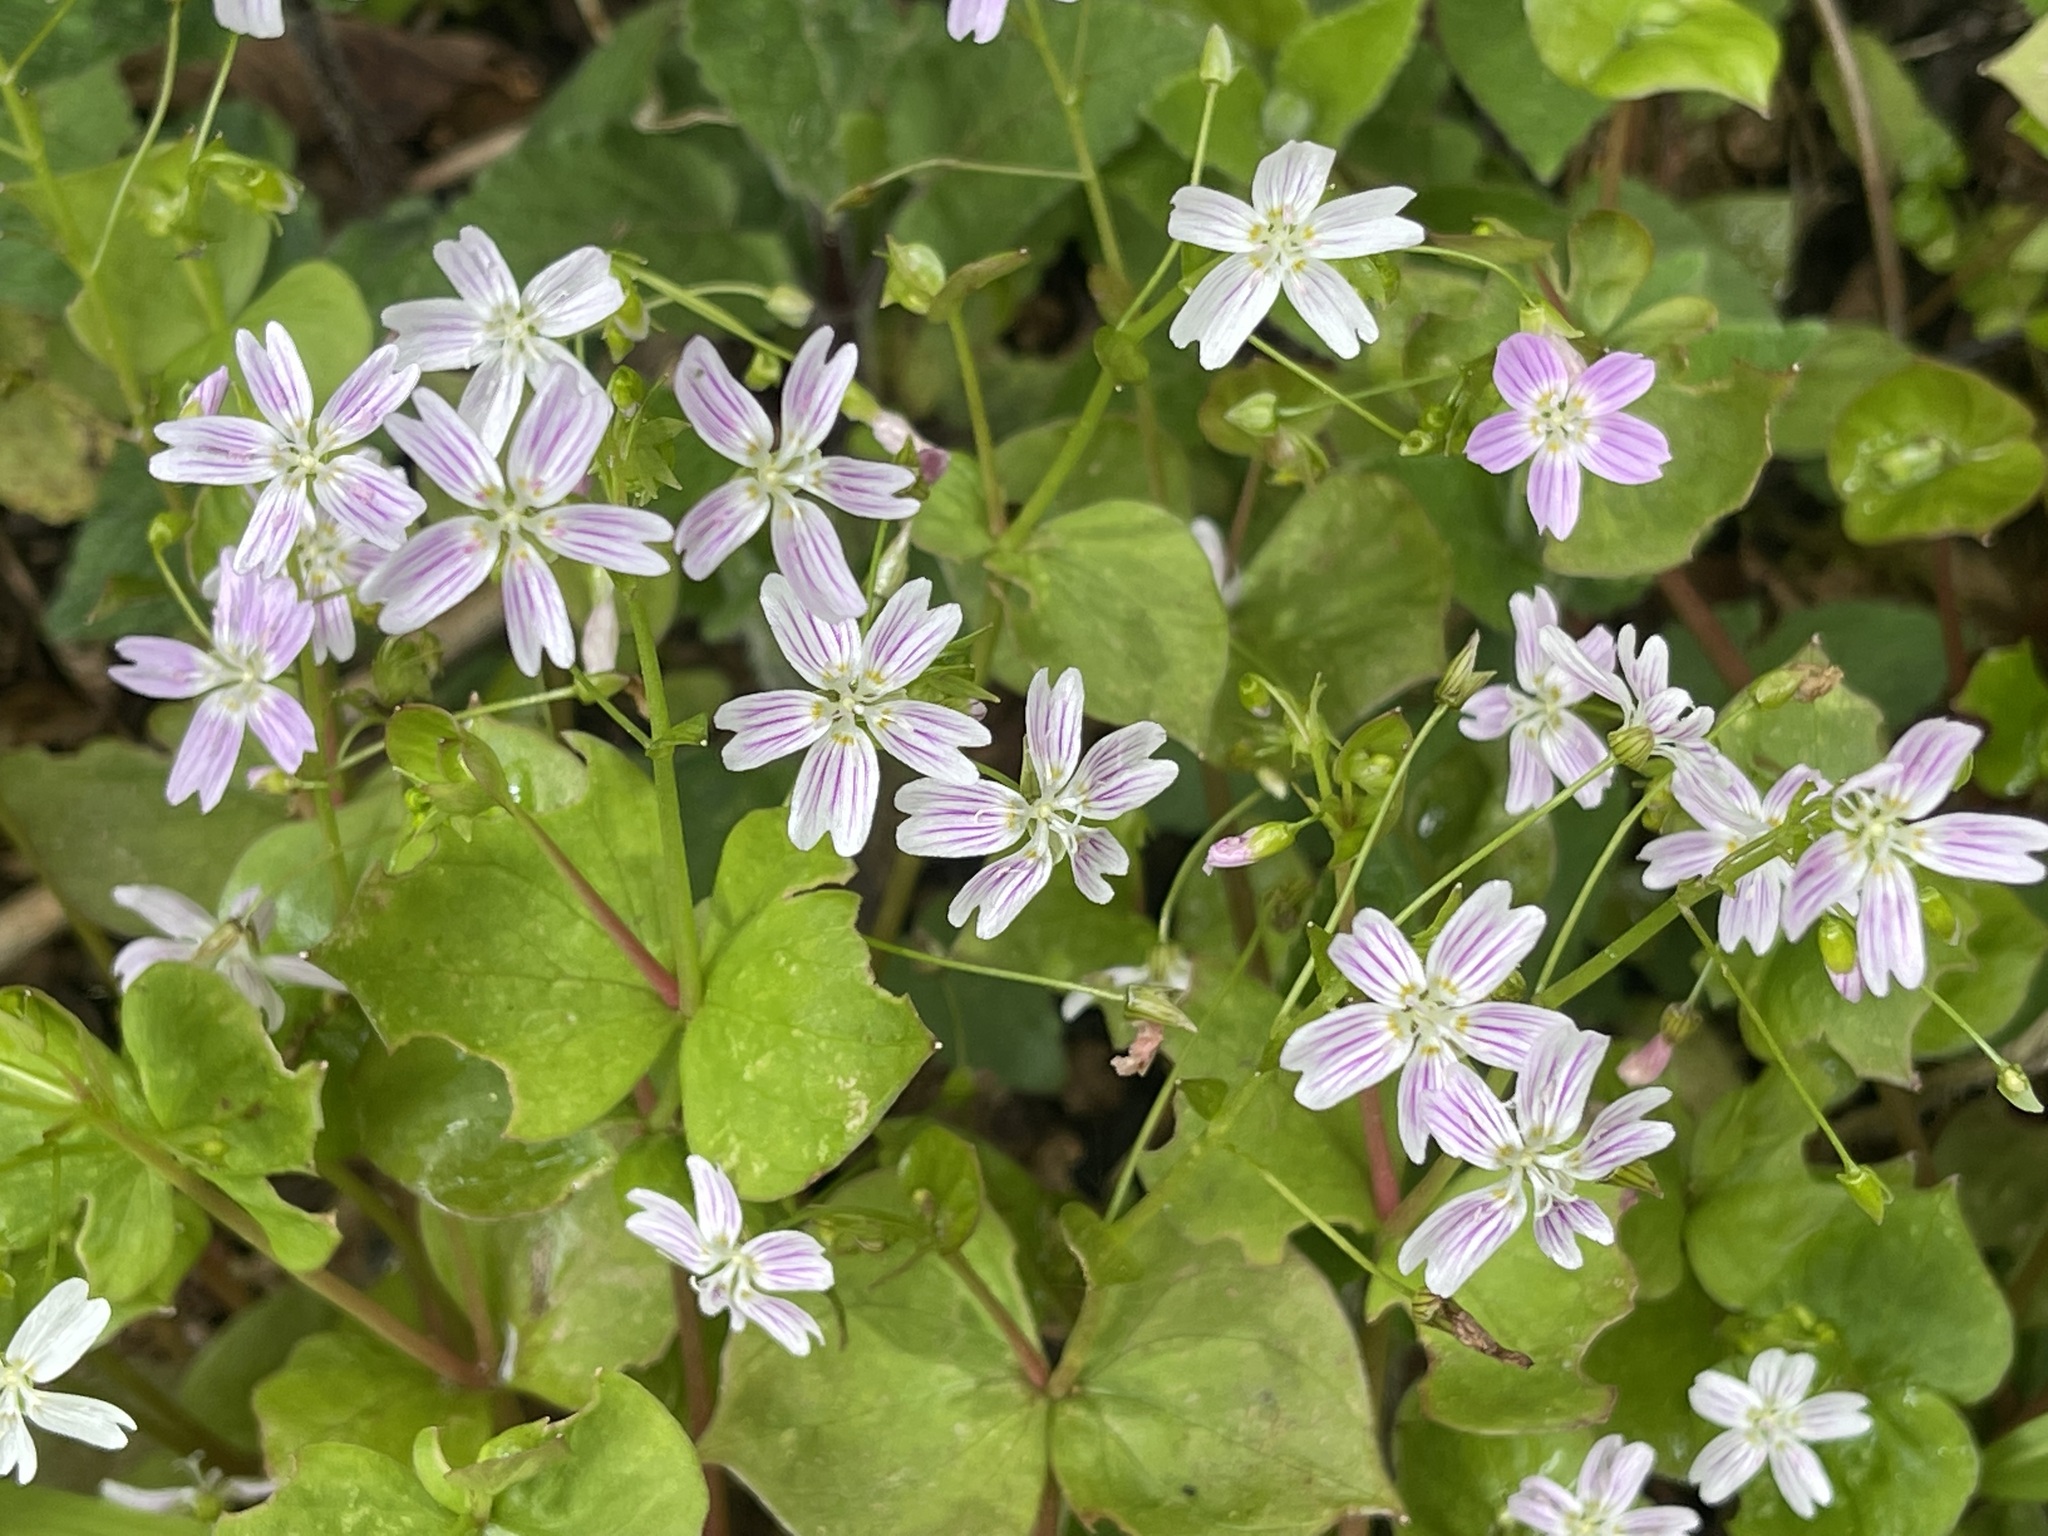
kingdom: Plantae
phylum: Tracheophyta
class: Magnoliopsida
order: Caryophyllales
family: Montiaceae
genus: Claytonia
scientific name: Claytonia sibirica
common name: Pink purslane
